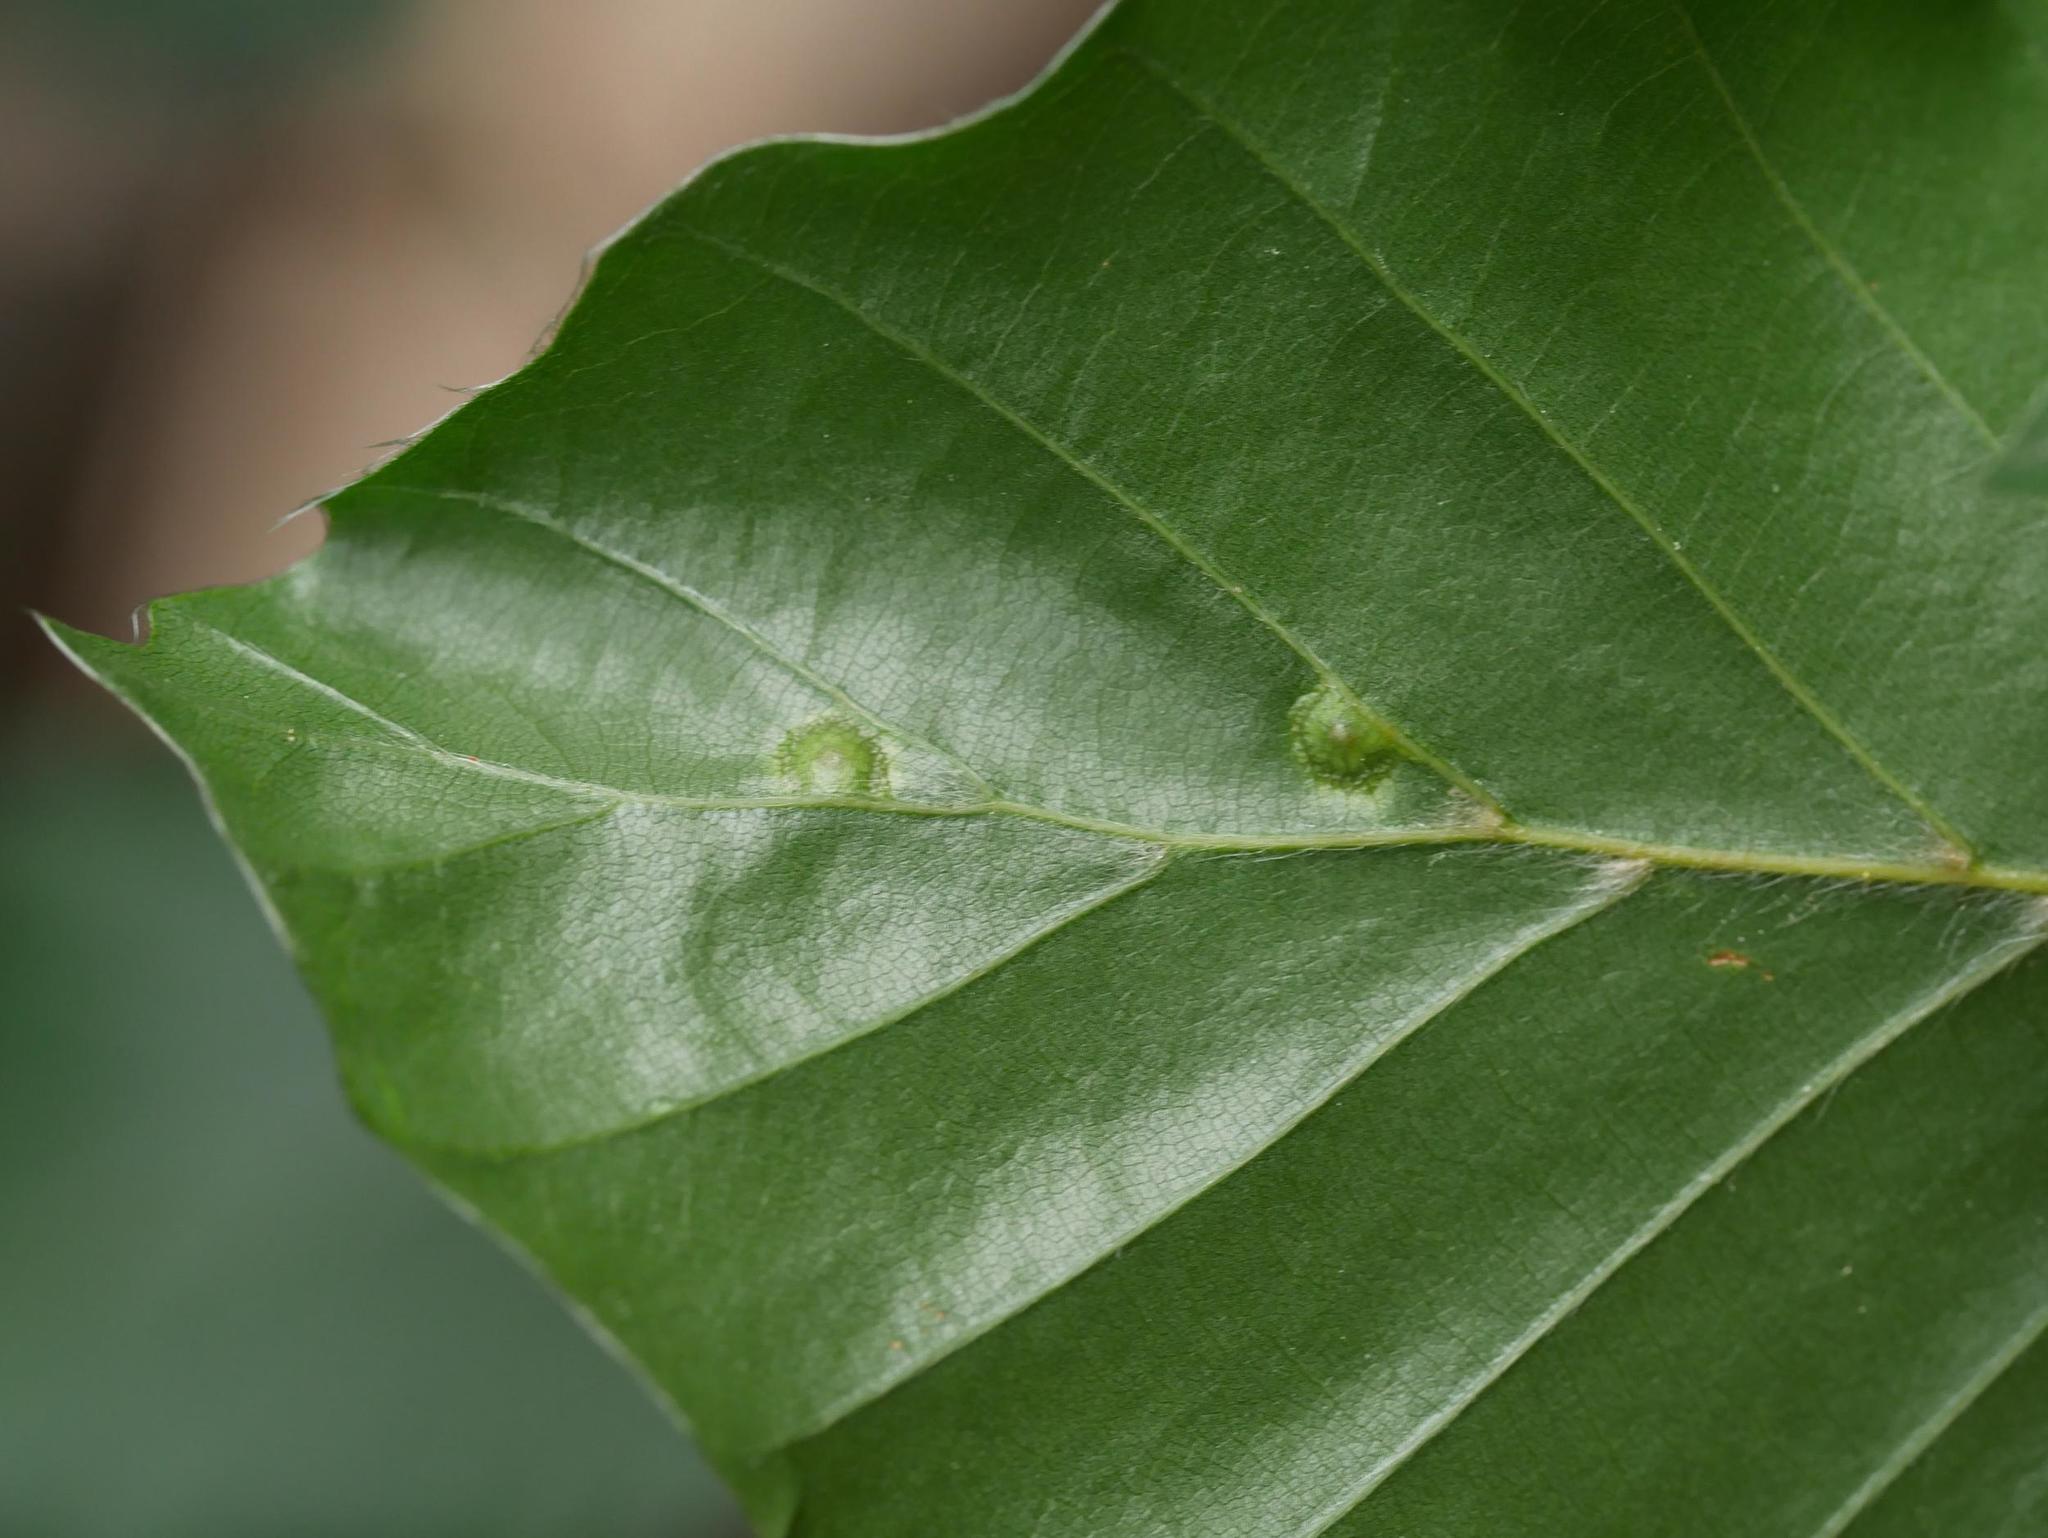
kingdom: Animalia
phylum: Arthropoda
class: Insecta
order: Diptera
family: Cecidomyiidae
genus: Hartigiola
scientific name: Hartigiola annulipes
